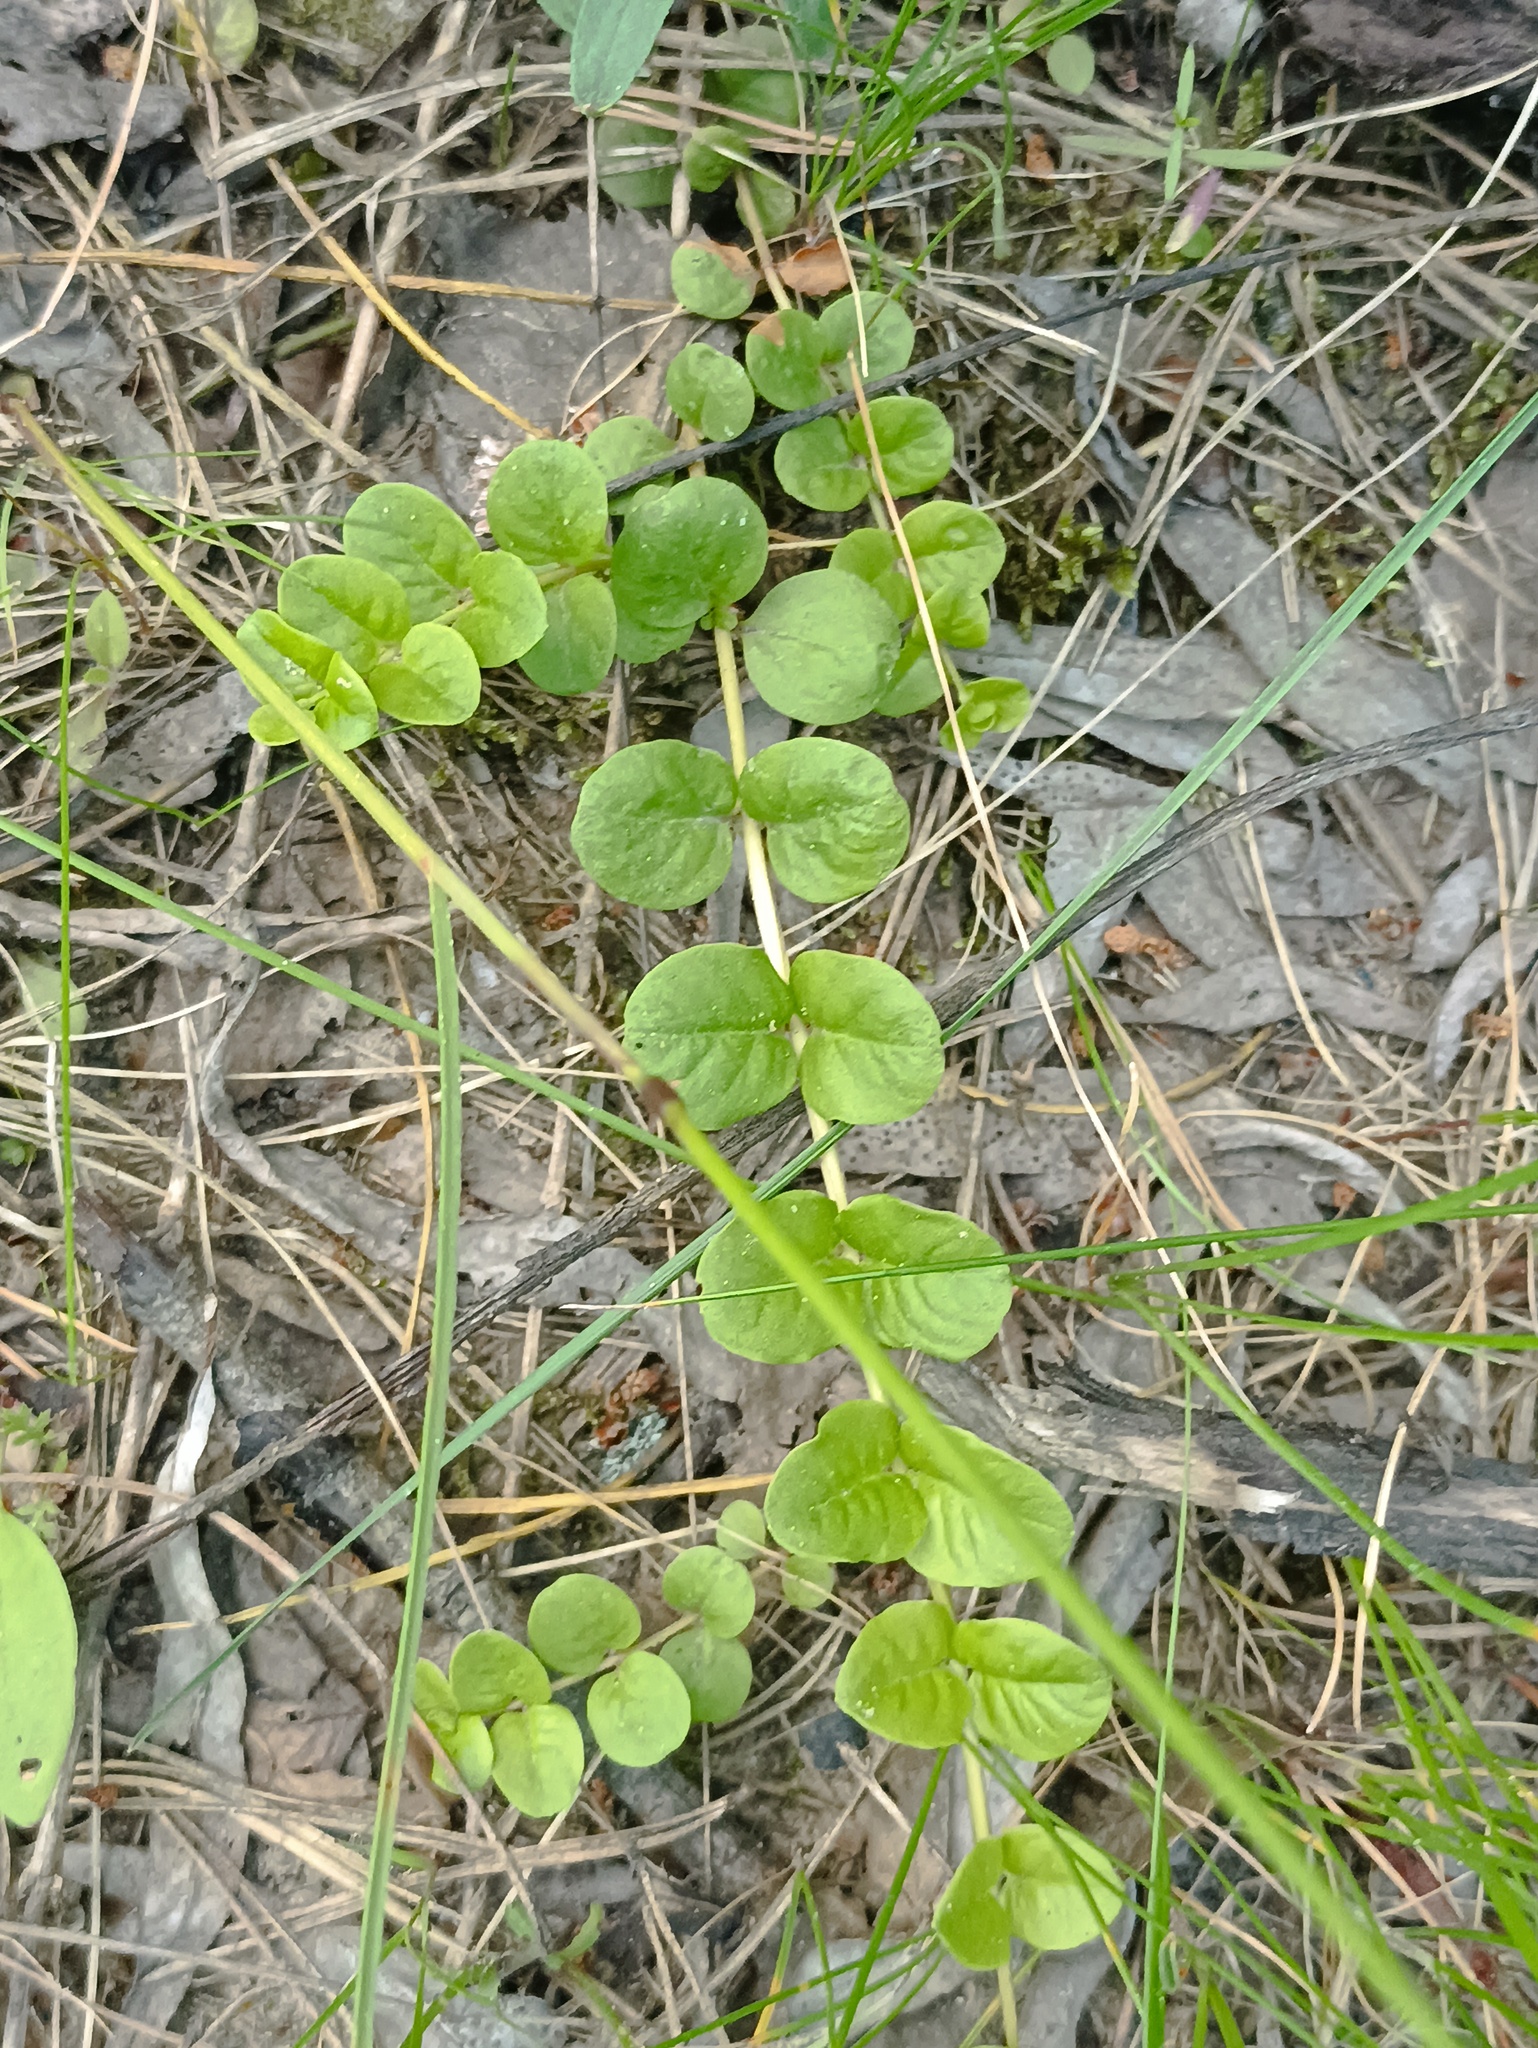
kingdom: Plantae
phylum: Tracheophyta
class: Magnoliopsida
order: Ericales
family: Primulaceae
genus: Lysimachia
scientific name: Lysimachia nummularia
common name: Moneywort
